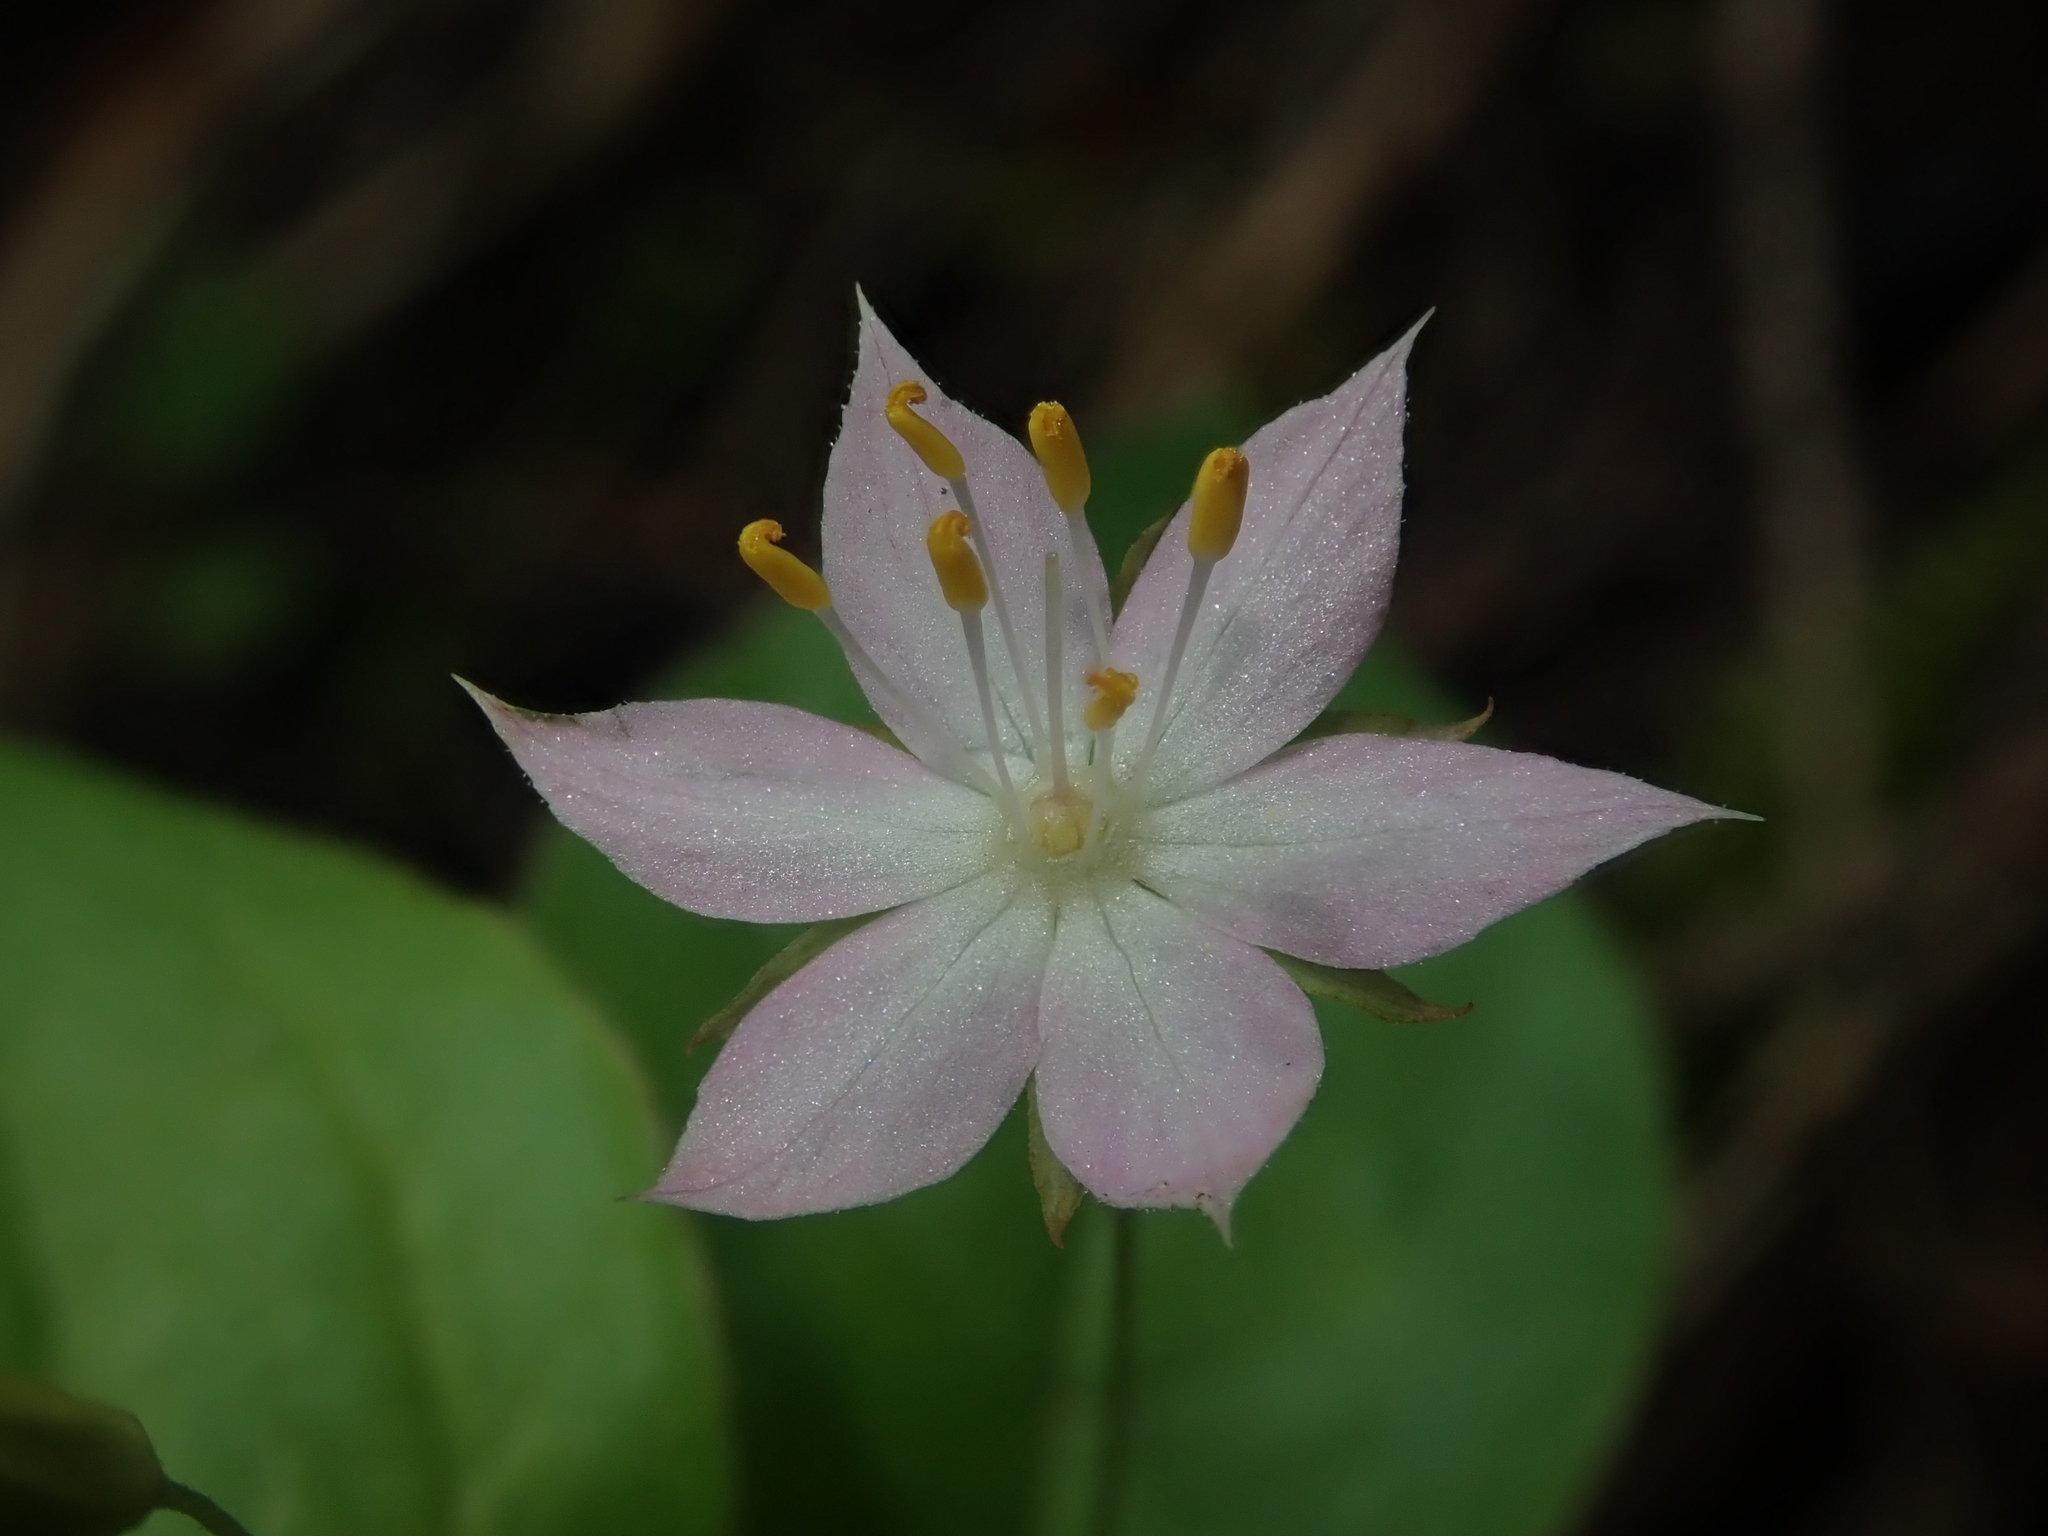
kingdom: Plantae
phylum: Tracheophyta
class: Magnoliopsida
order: Ericales
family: Primulaceae
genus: Lysimachia
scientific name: Lysimachia latifolia
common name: Pacific starflower
